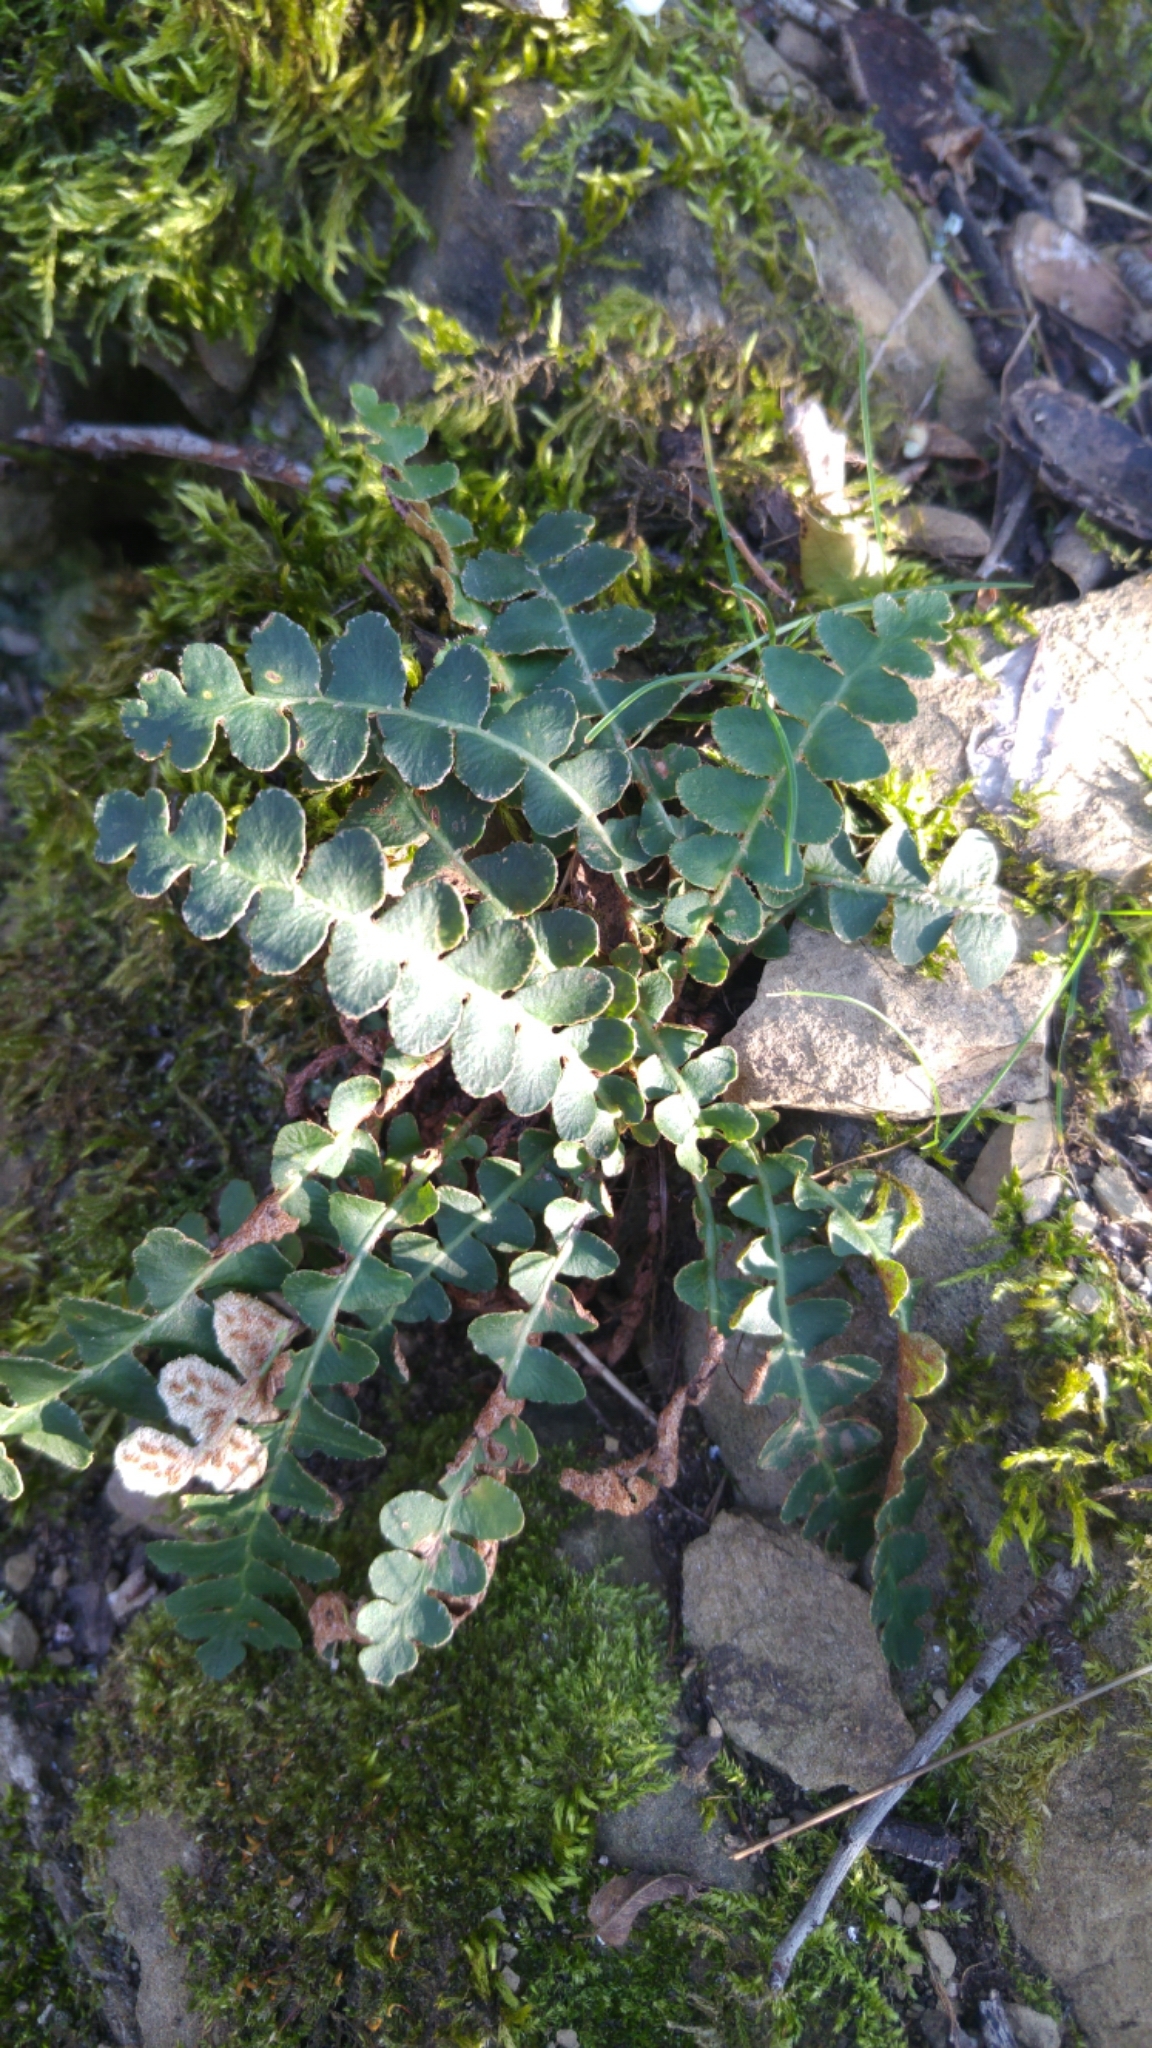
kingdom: Plantae
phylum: Tracheophyta
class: Polypodiopsida
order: Polypodiales
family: Aspleniaceae
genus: Asplenium
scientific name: Asplenium ceterach
